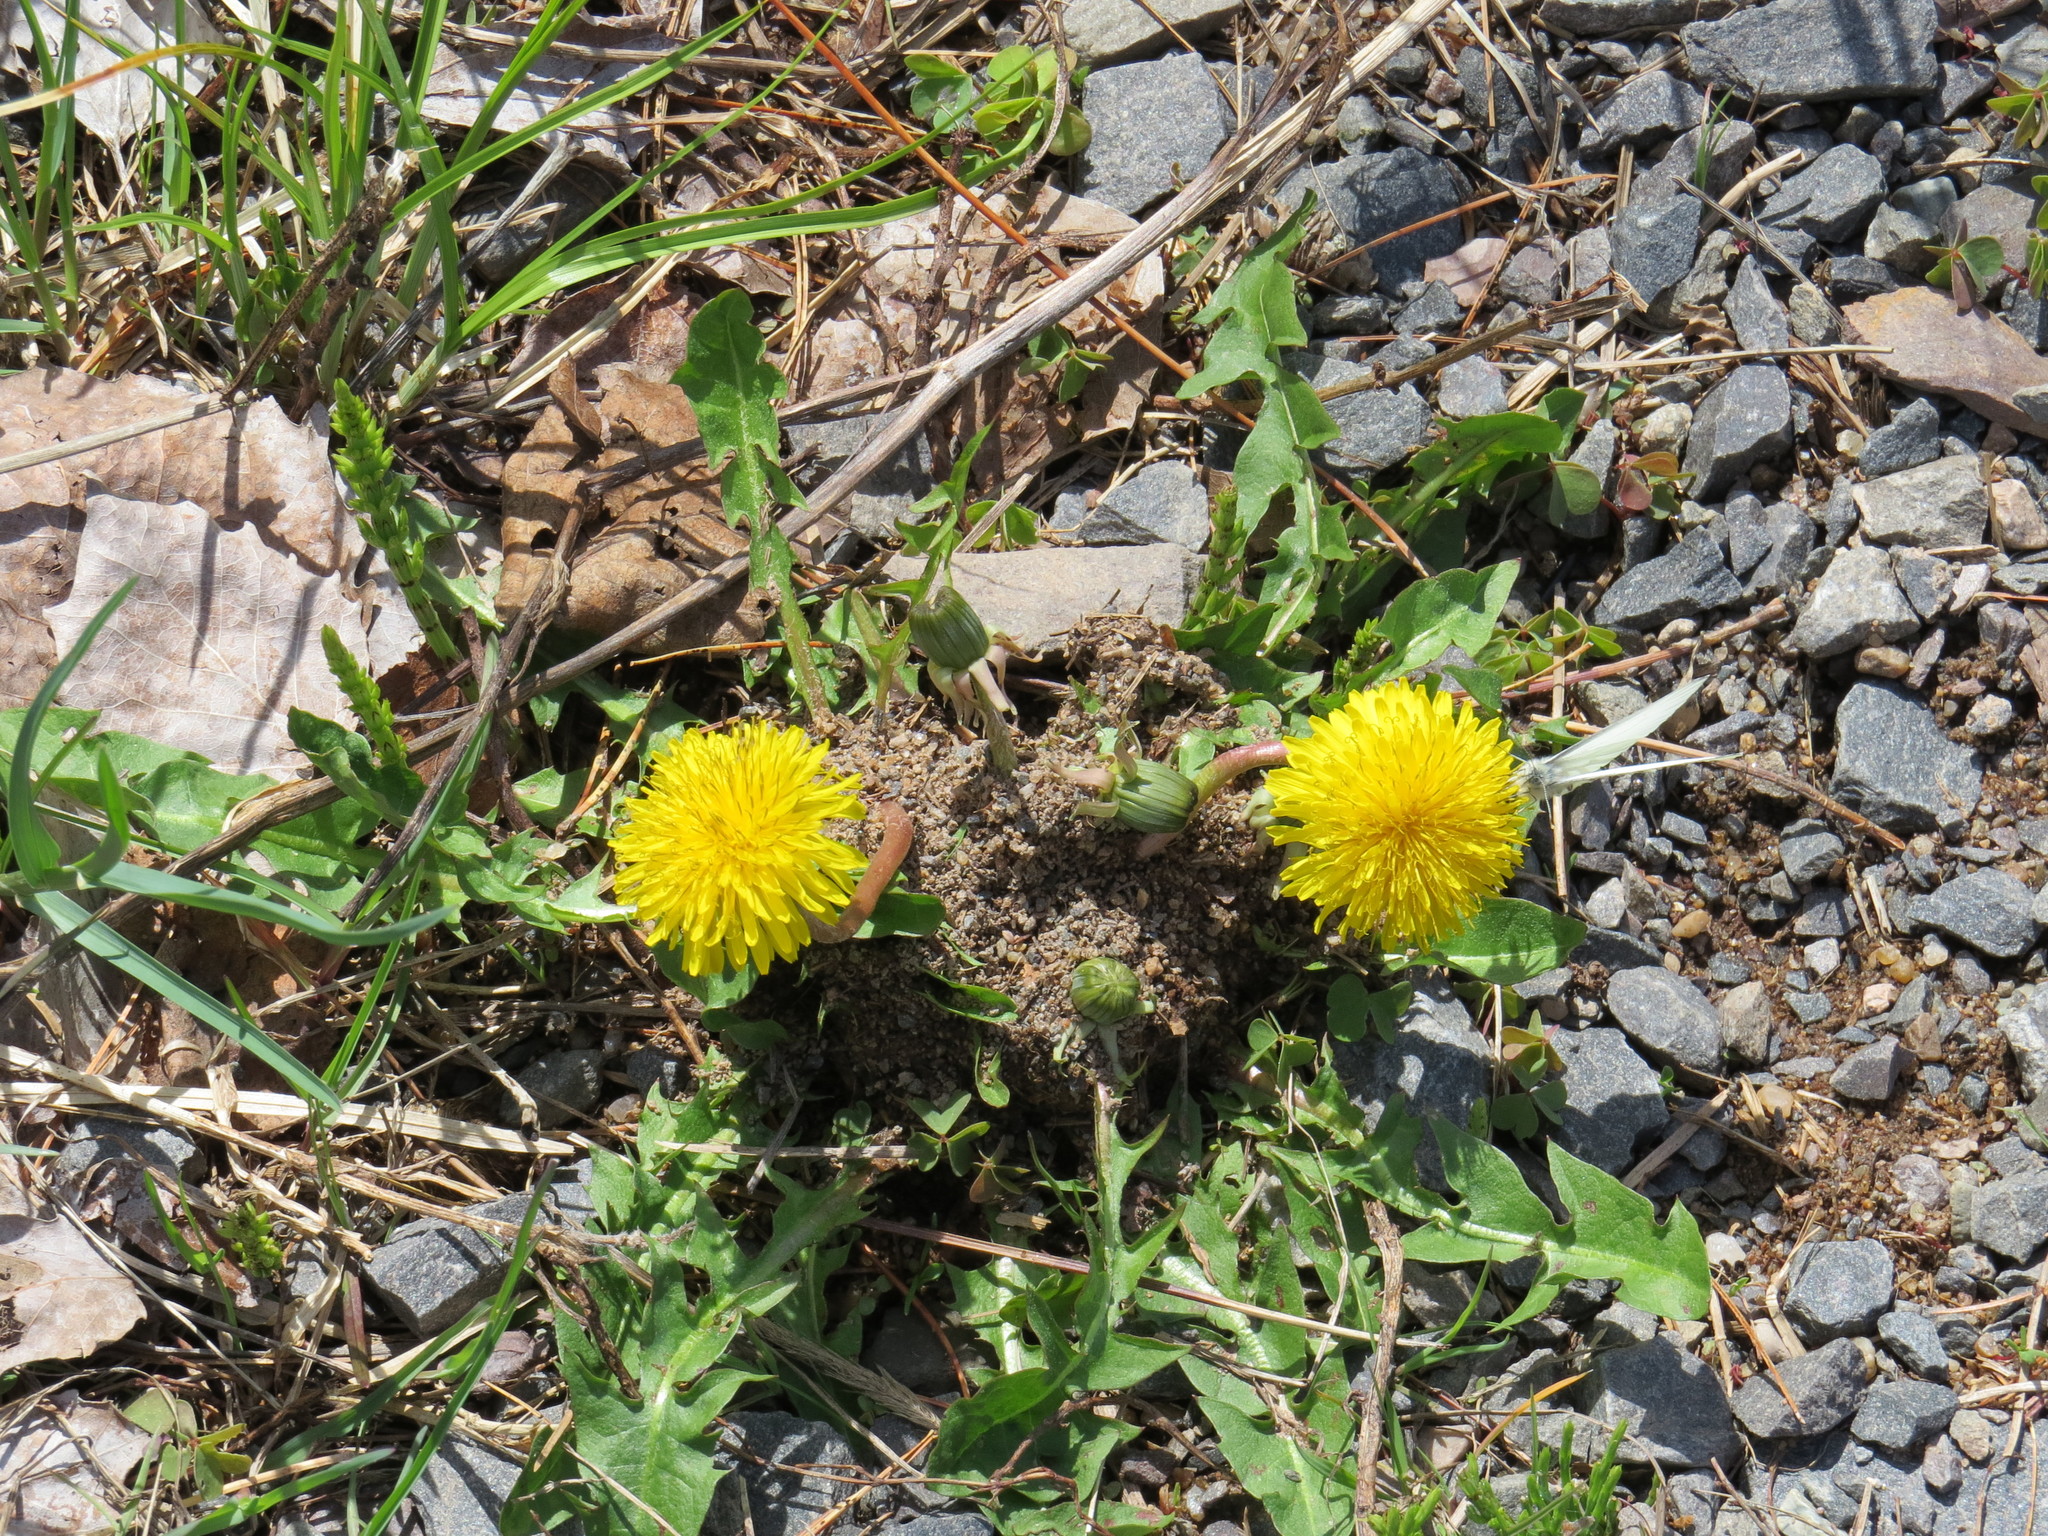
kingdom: Plantae
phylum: Tracheophyta
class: Magnoliopsida
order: Asterales
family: Asteraceae
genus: Taraxacum
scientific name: Taraxacum officinale
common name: Common dandelion
